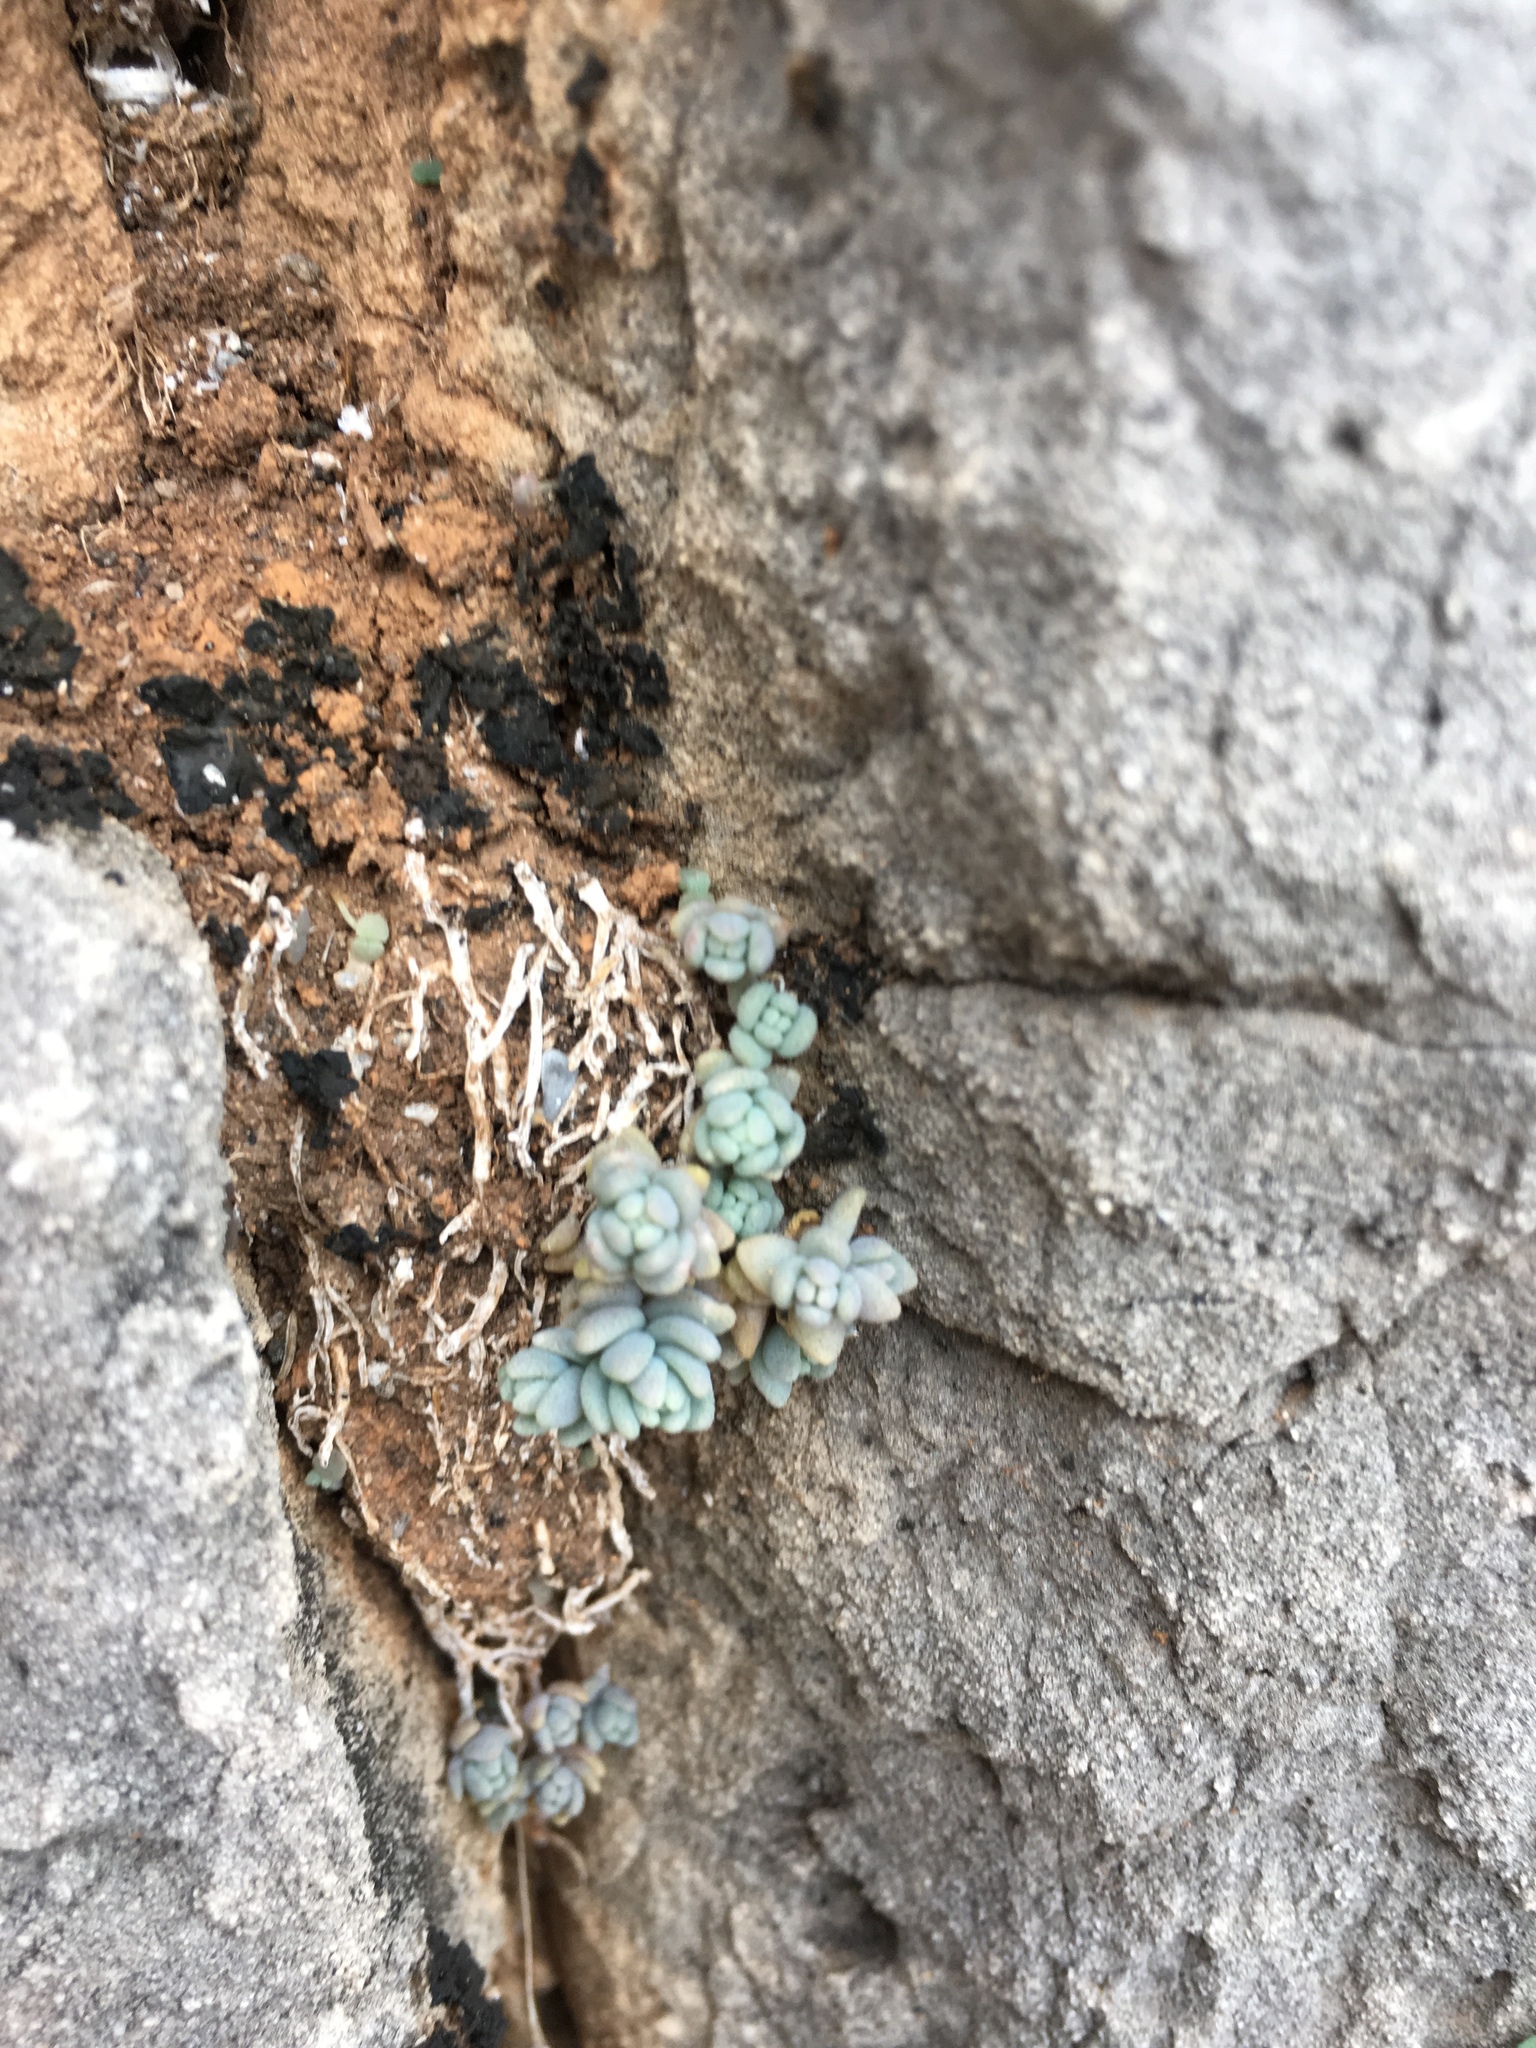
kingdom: Plantae
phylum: Tracheophyta
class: Magnoliopsida
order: Saxifragales
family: Crassulaceae
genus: Sedum
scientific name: Sedum dasyphyllum
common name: Thick-leaf stonecrop
